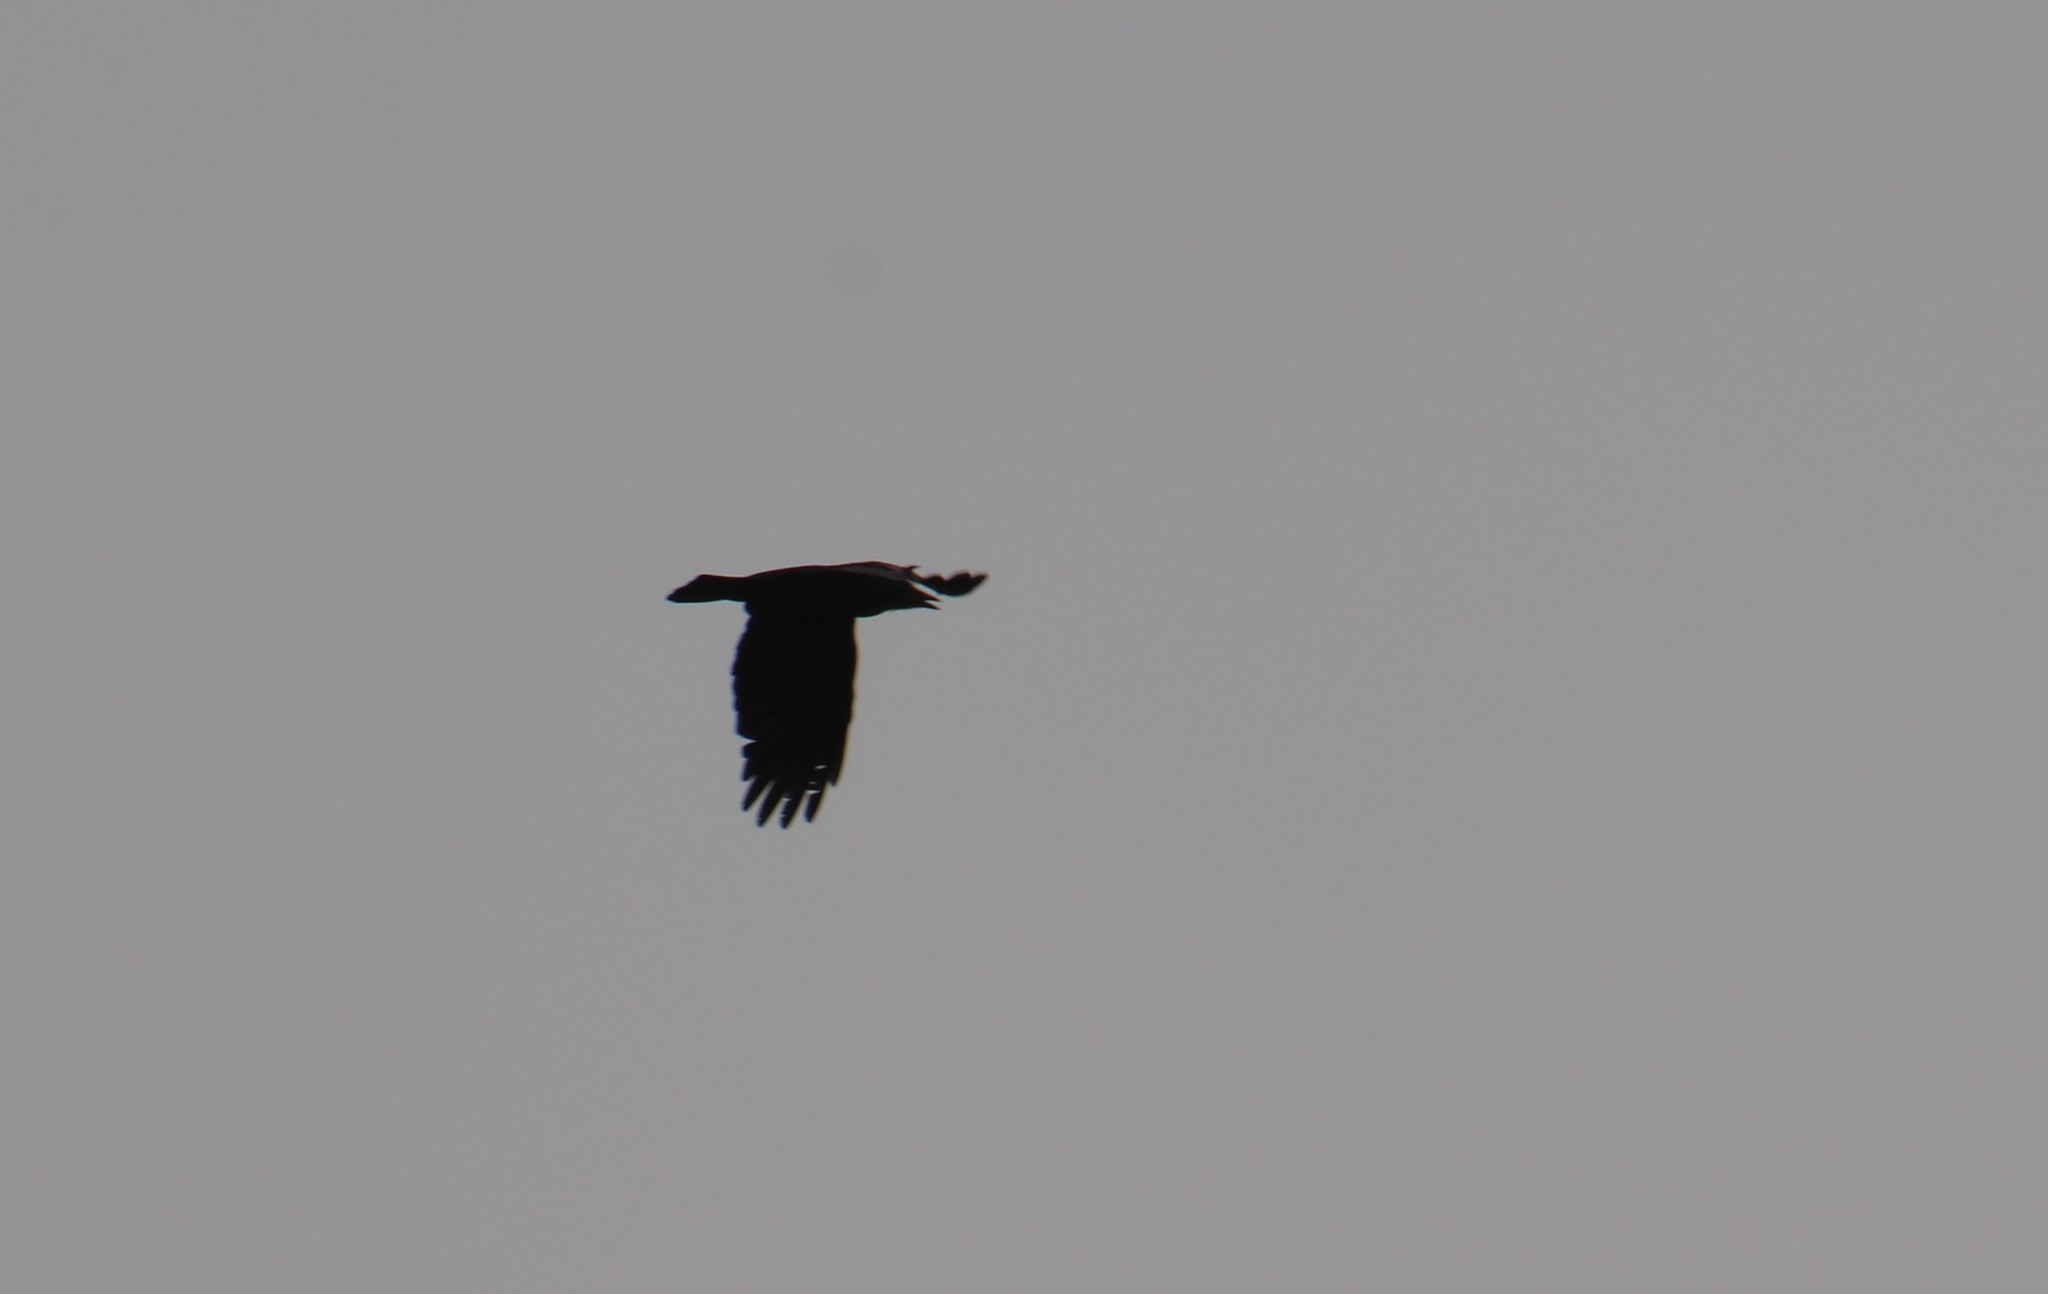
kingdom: Animalia
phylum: Chordata
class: Aves
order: Passeriformes
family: Corvidae
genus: Corvus
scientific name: Corvus brachyrhynchos
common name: American crow
